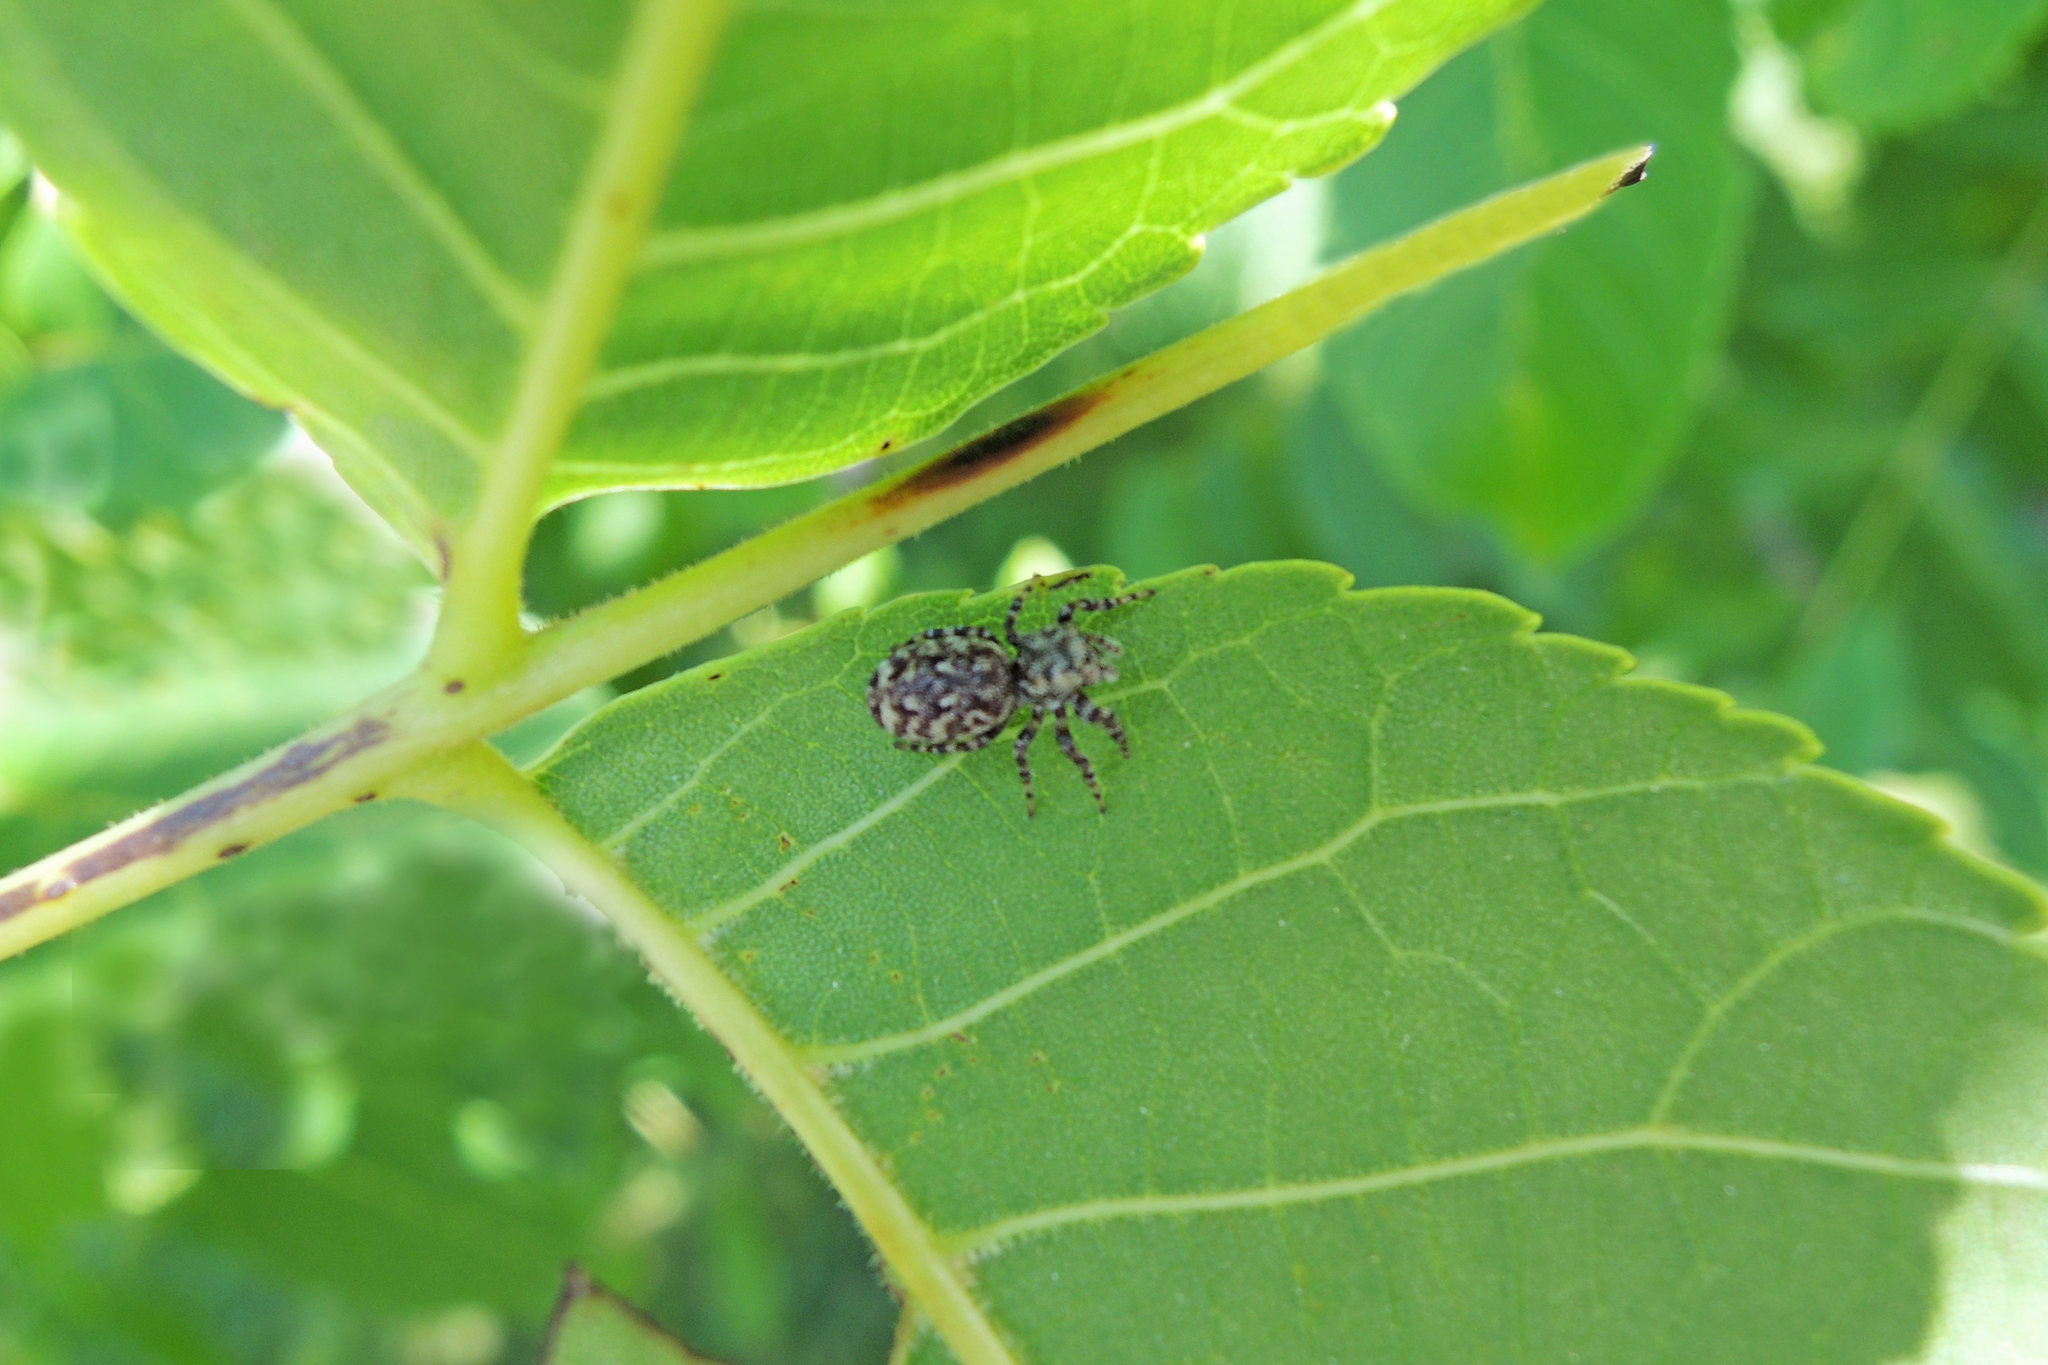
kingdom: Animalia
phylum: Arthropoda
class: Arachnida
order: Araneae
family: Salticidae
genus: Pelegrina
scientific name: Pelegrina galathea
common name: Jumping spiders
